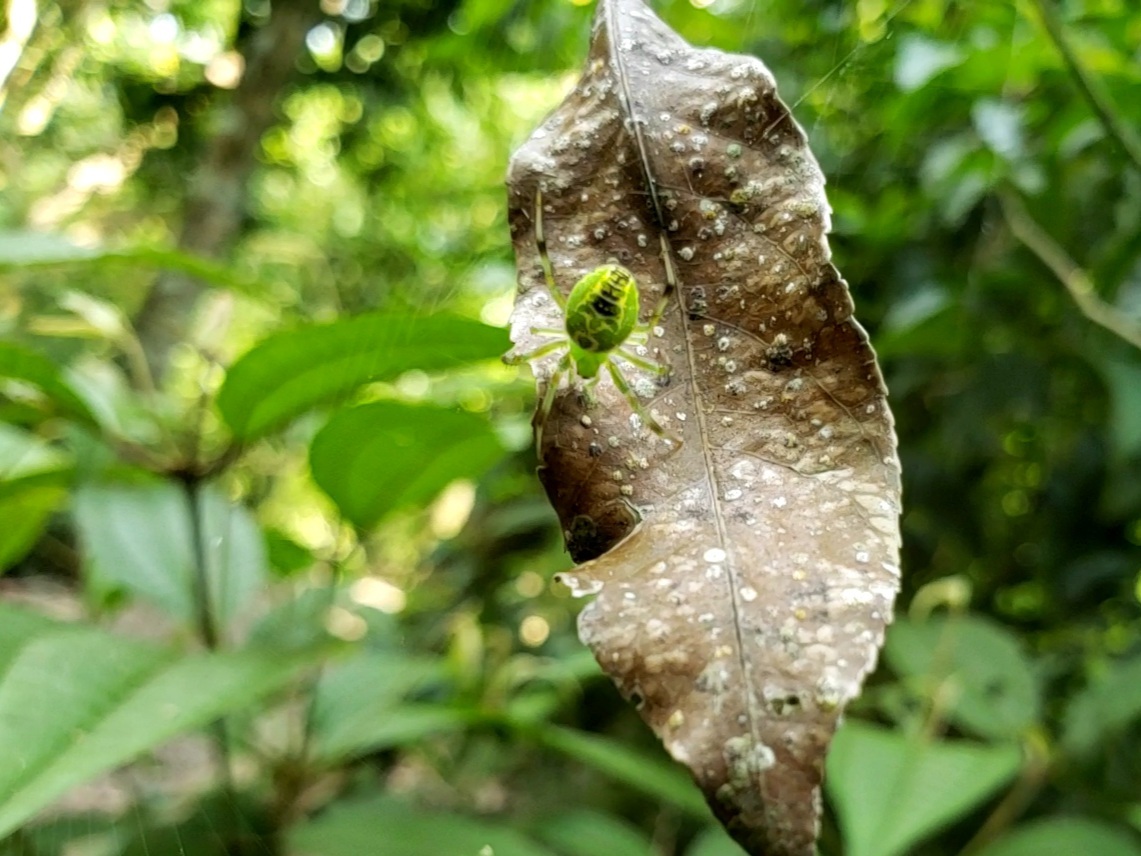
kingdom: Animalia
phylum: Arthropoda
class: Arachnida
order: Araneae
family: Araneidae
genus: Araneus
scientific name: Araneus venatrix
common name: Orb weavers
